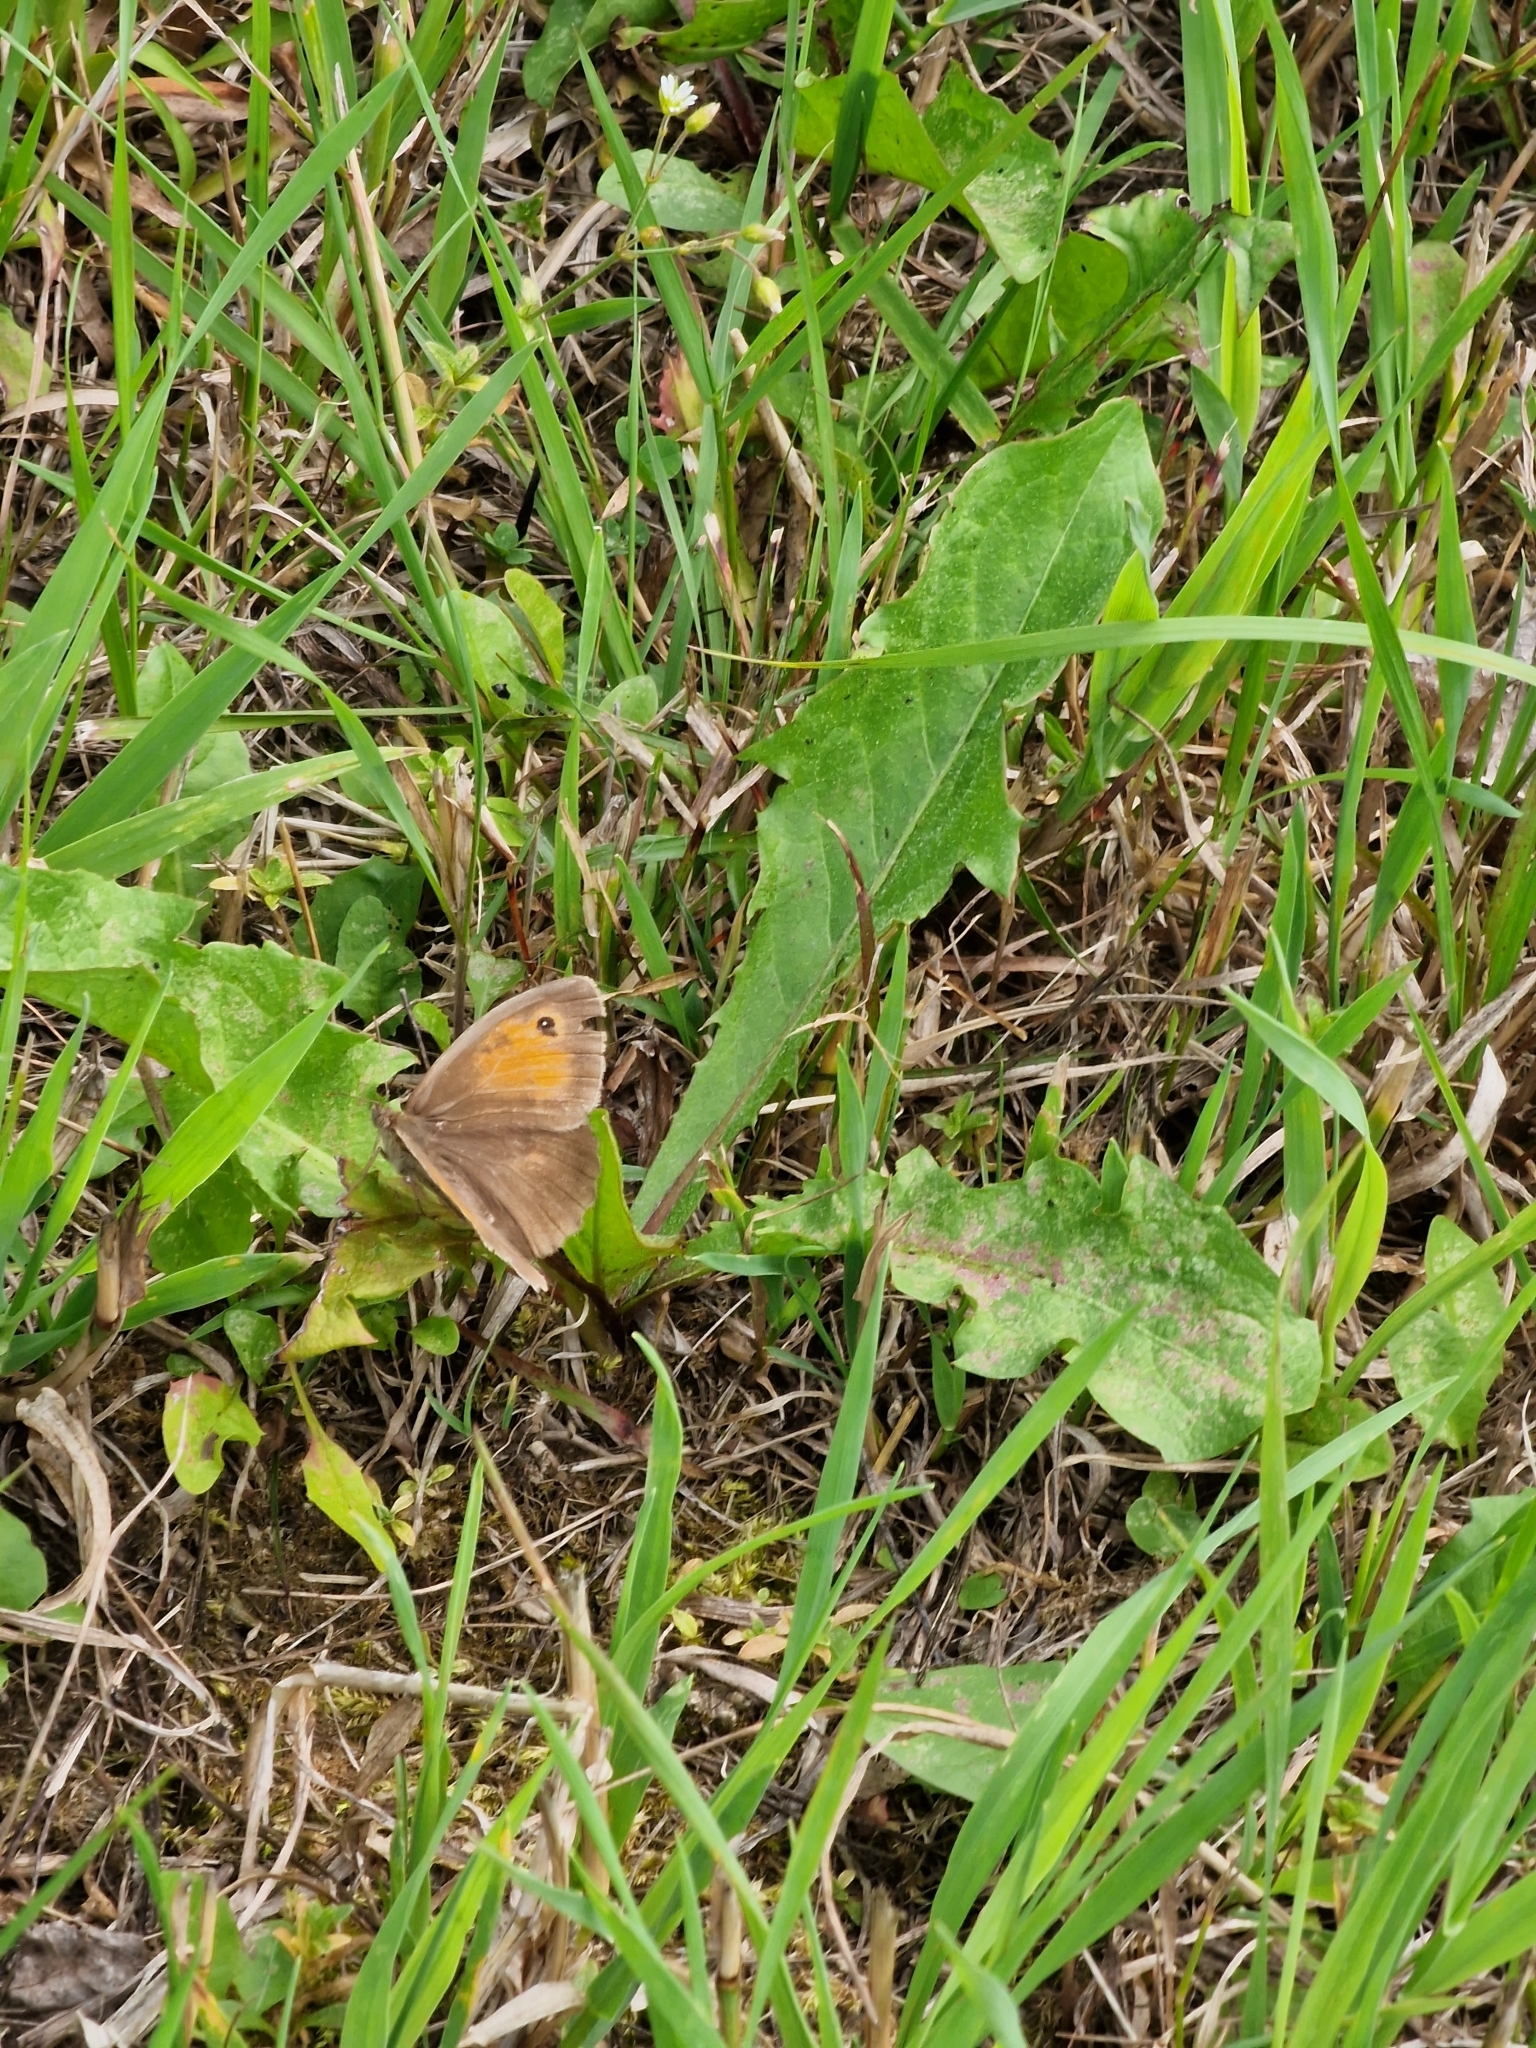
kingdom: Animalia
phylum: Arthropoda
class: Insecta
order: Lepidoptera
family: Nymphalidae
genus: Maniola
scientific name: Maniola jurtina
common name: Meadow brown
